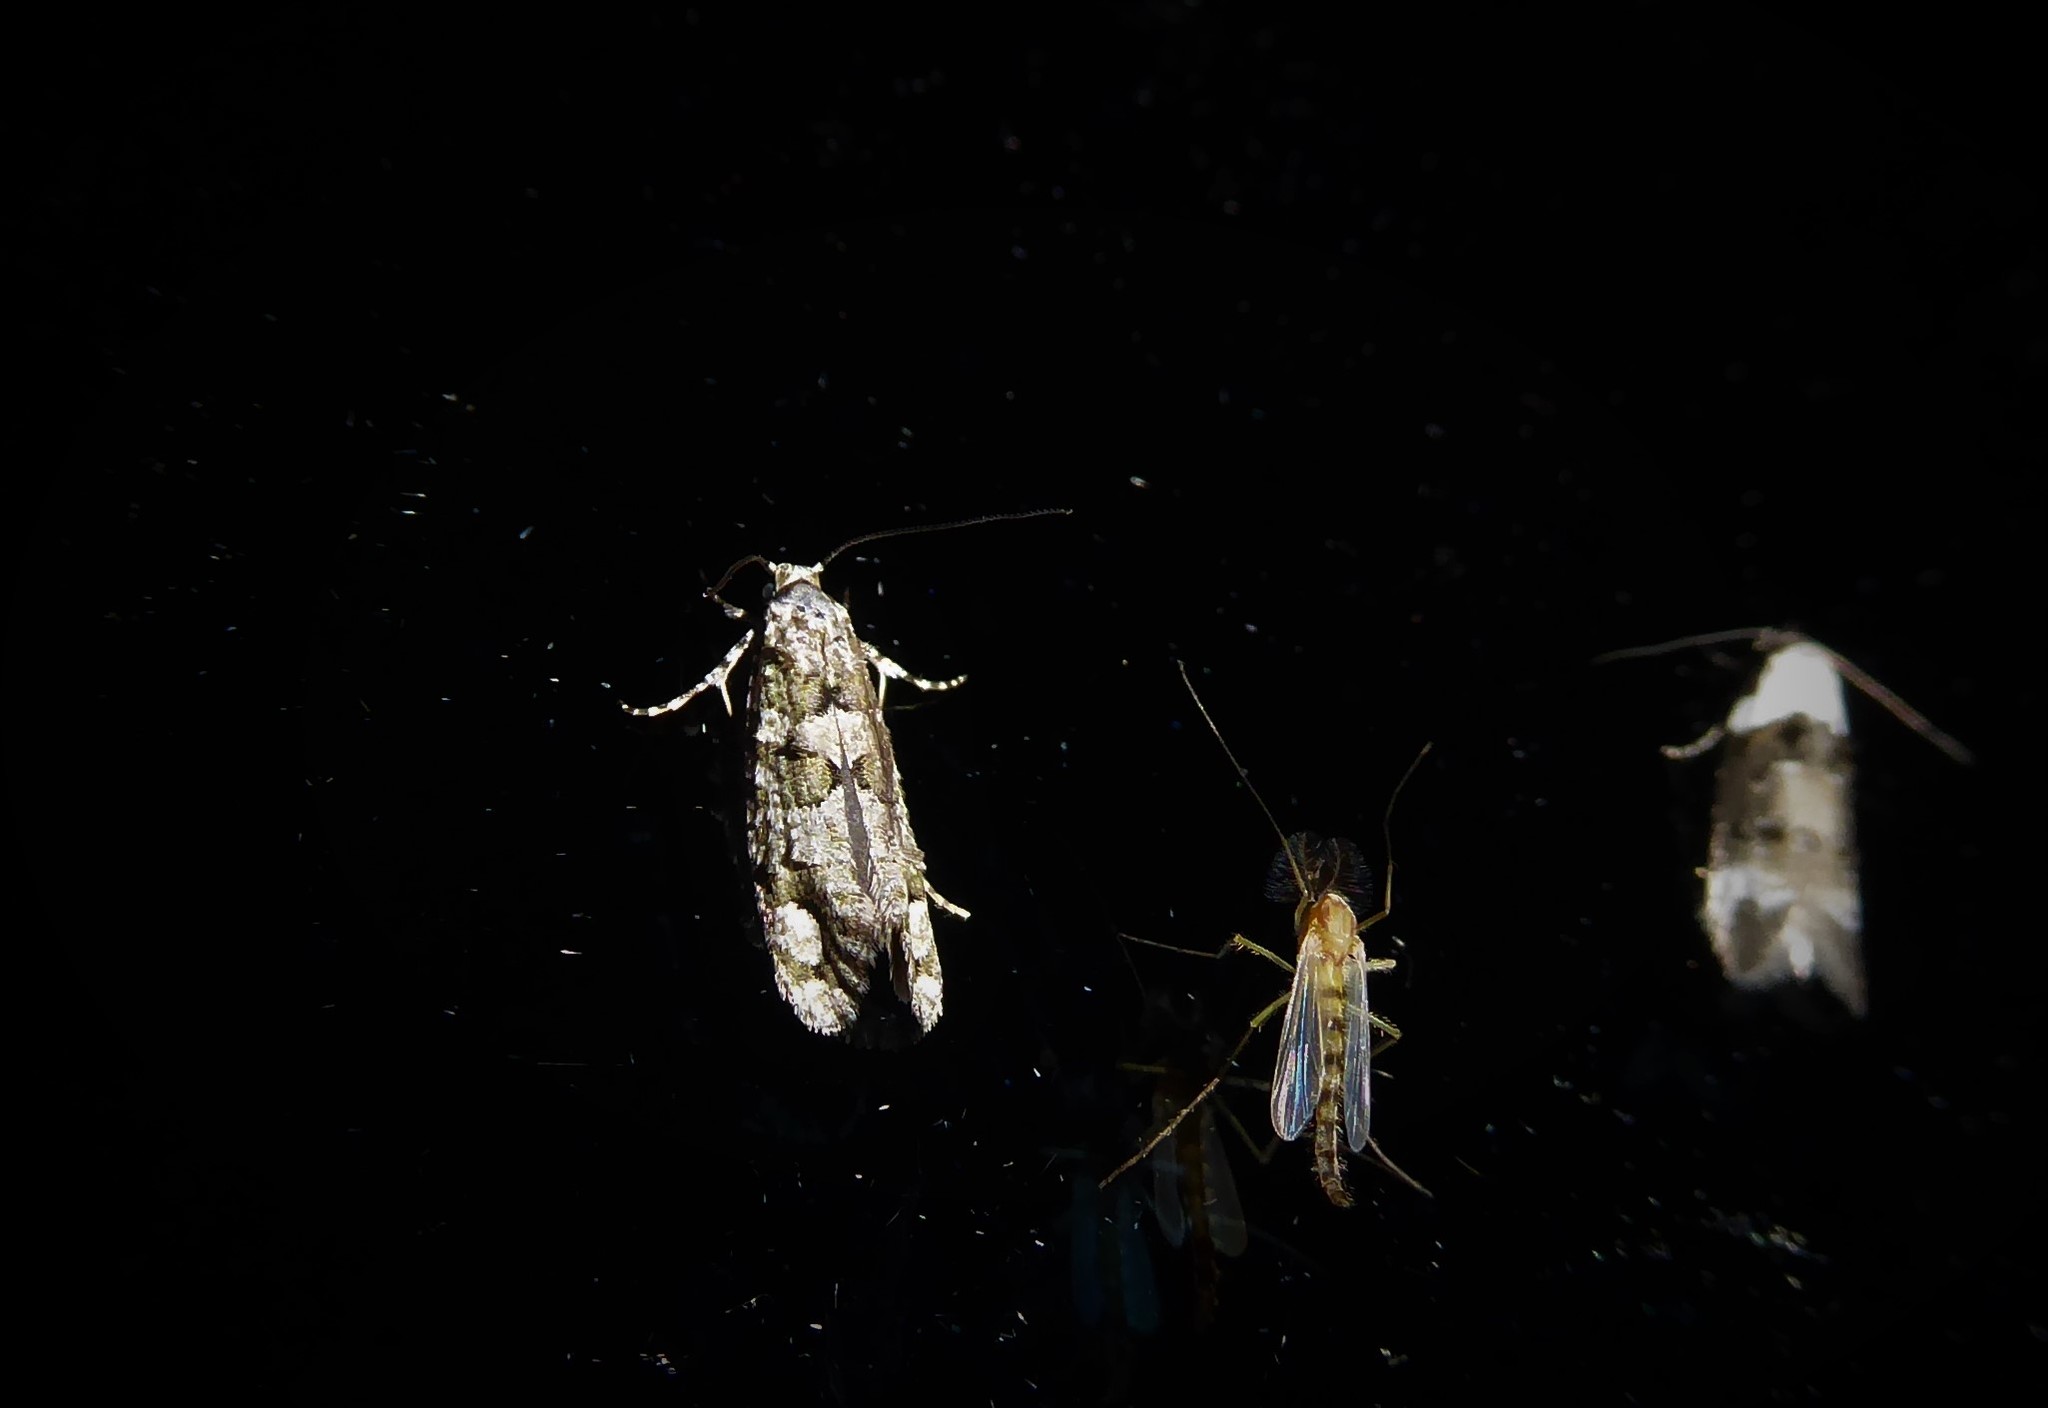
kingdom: Animalia
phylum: Arthropoda
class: Insecta
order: Lepidoptera
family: Tineidae
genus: Lysiphragma
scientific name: Lysiphragma howesii
